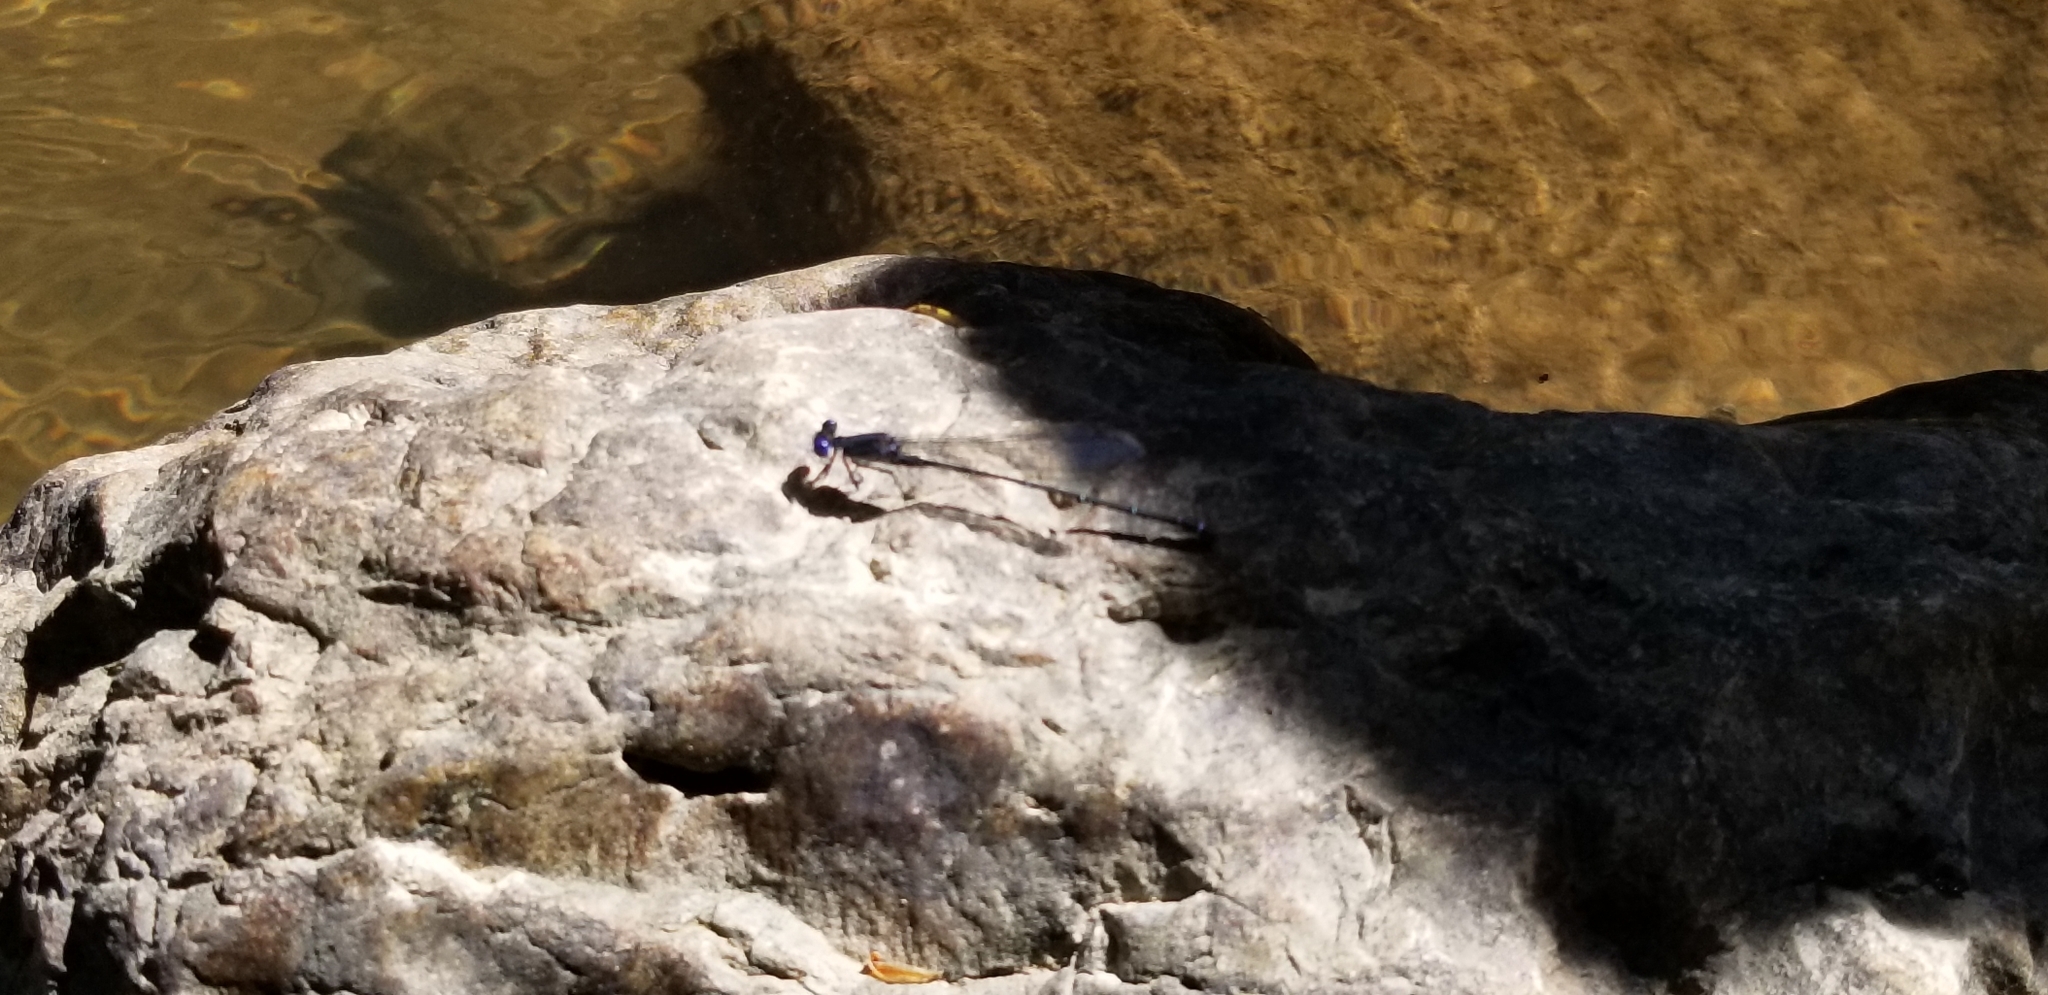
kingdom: Animalia
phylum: Arthropoda
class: Insecta
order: Odonata
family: Coenagrionidae
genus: Argia
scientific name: Argia translata
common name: Dusky dancer
